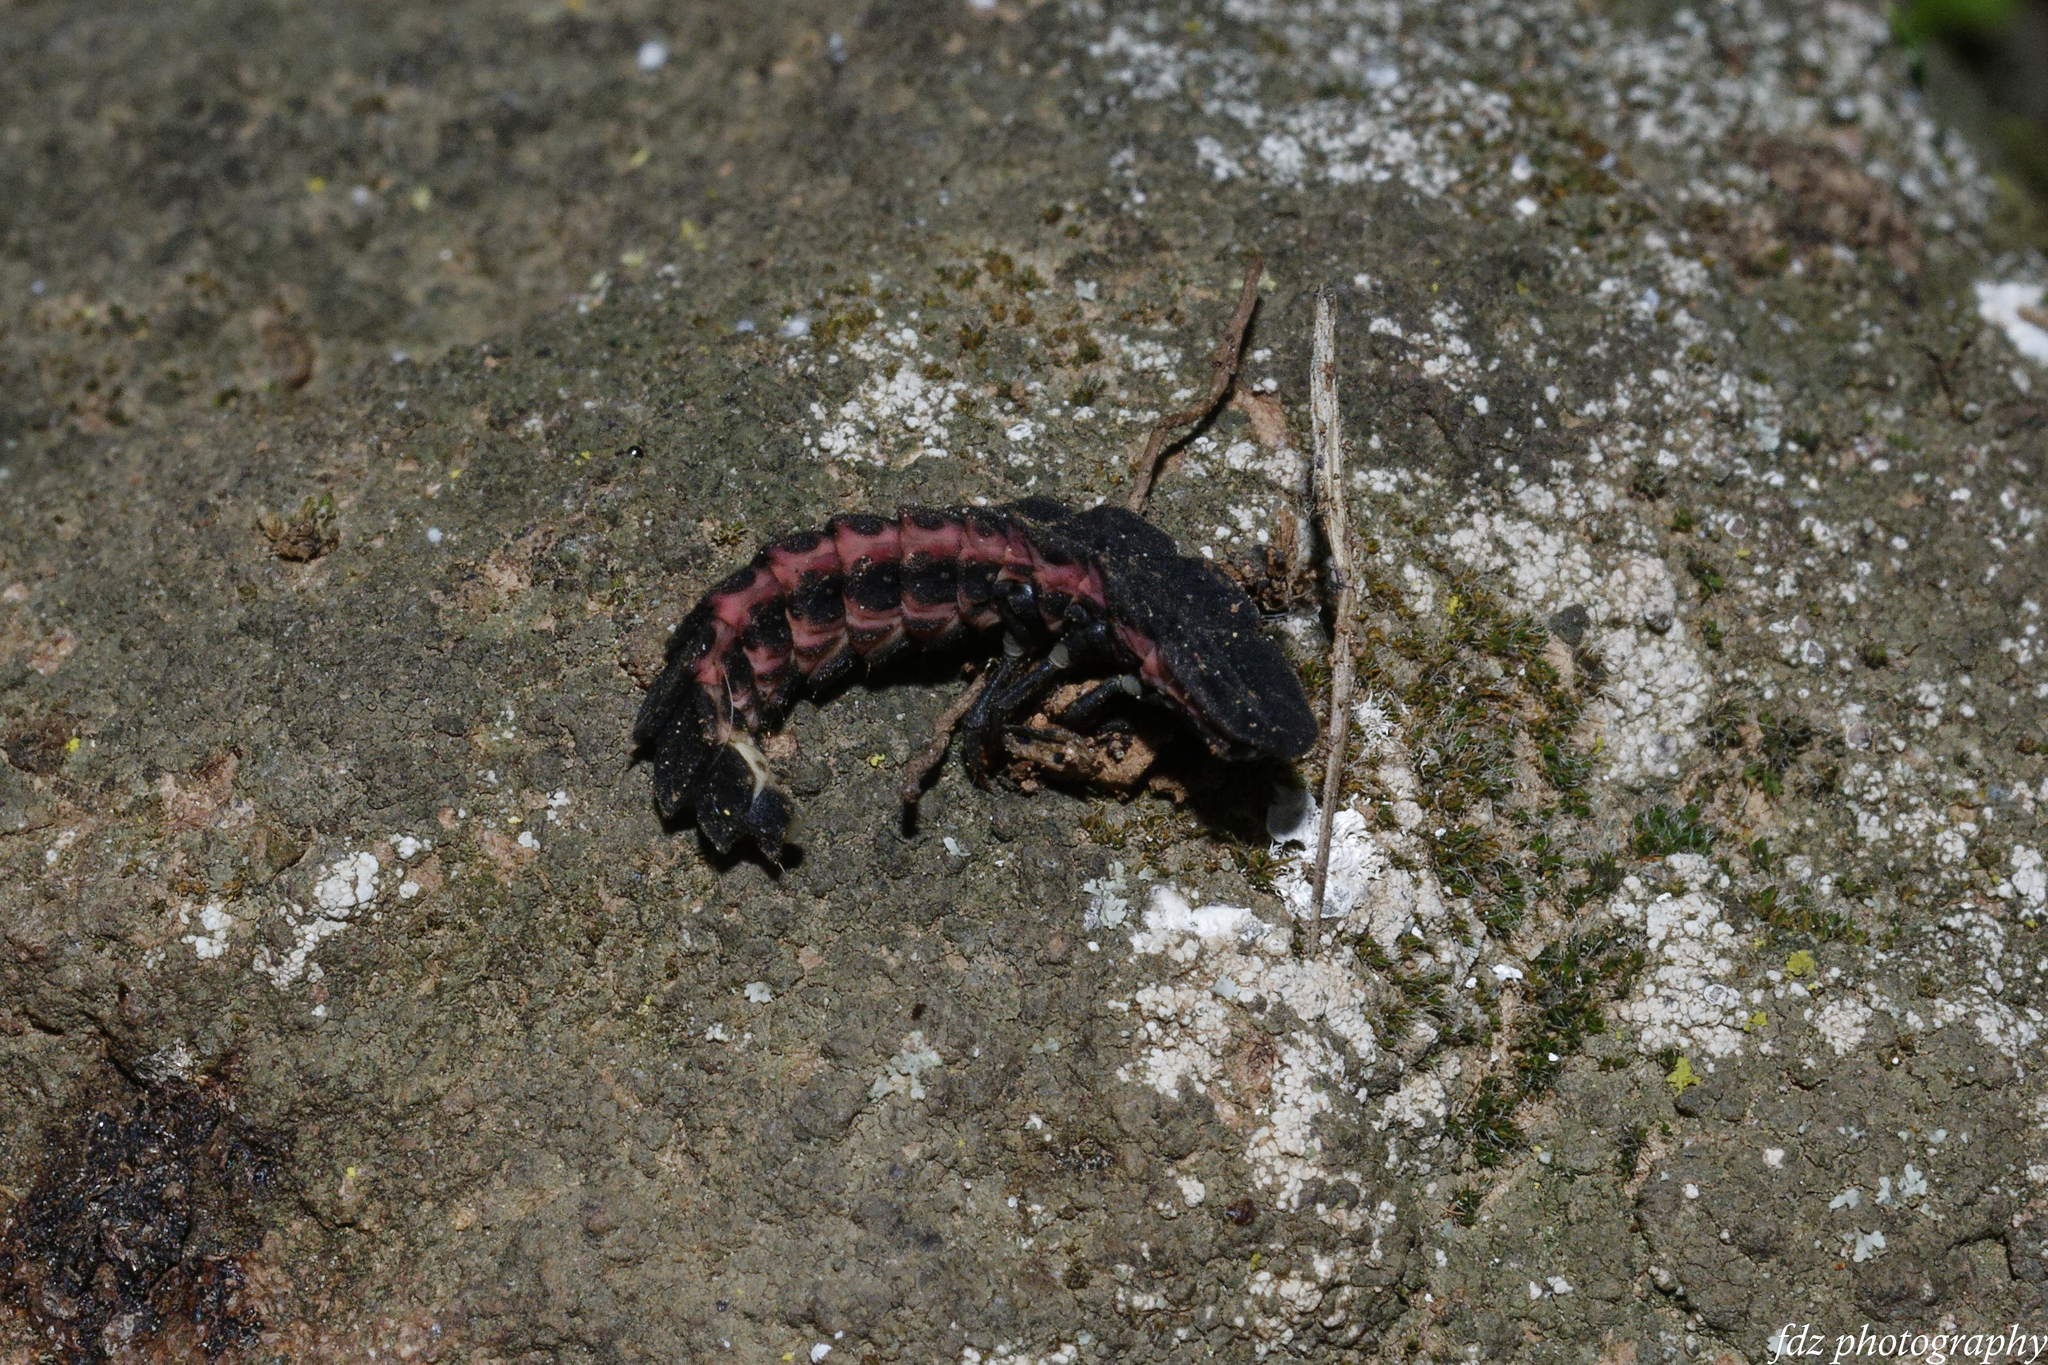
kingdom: Animalia
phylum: Arthropoda
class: Insecta
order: Coleoptera
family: Lampyridae
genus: Nyctophila
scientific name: Nyctophila reichii
